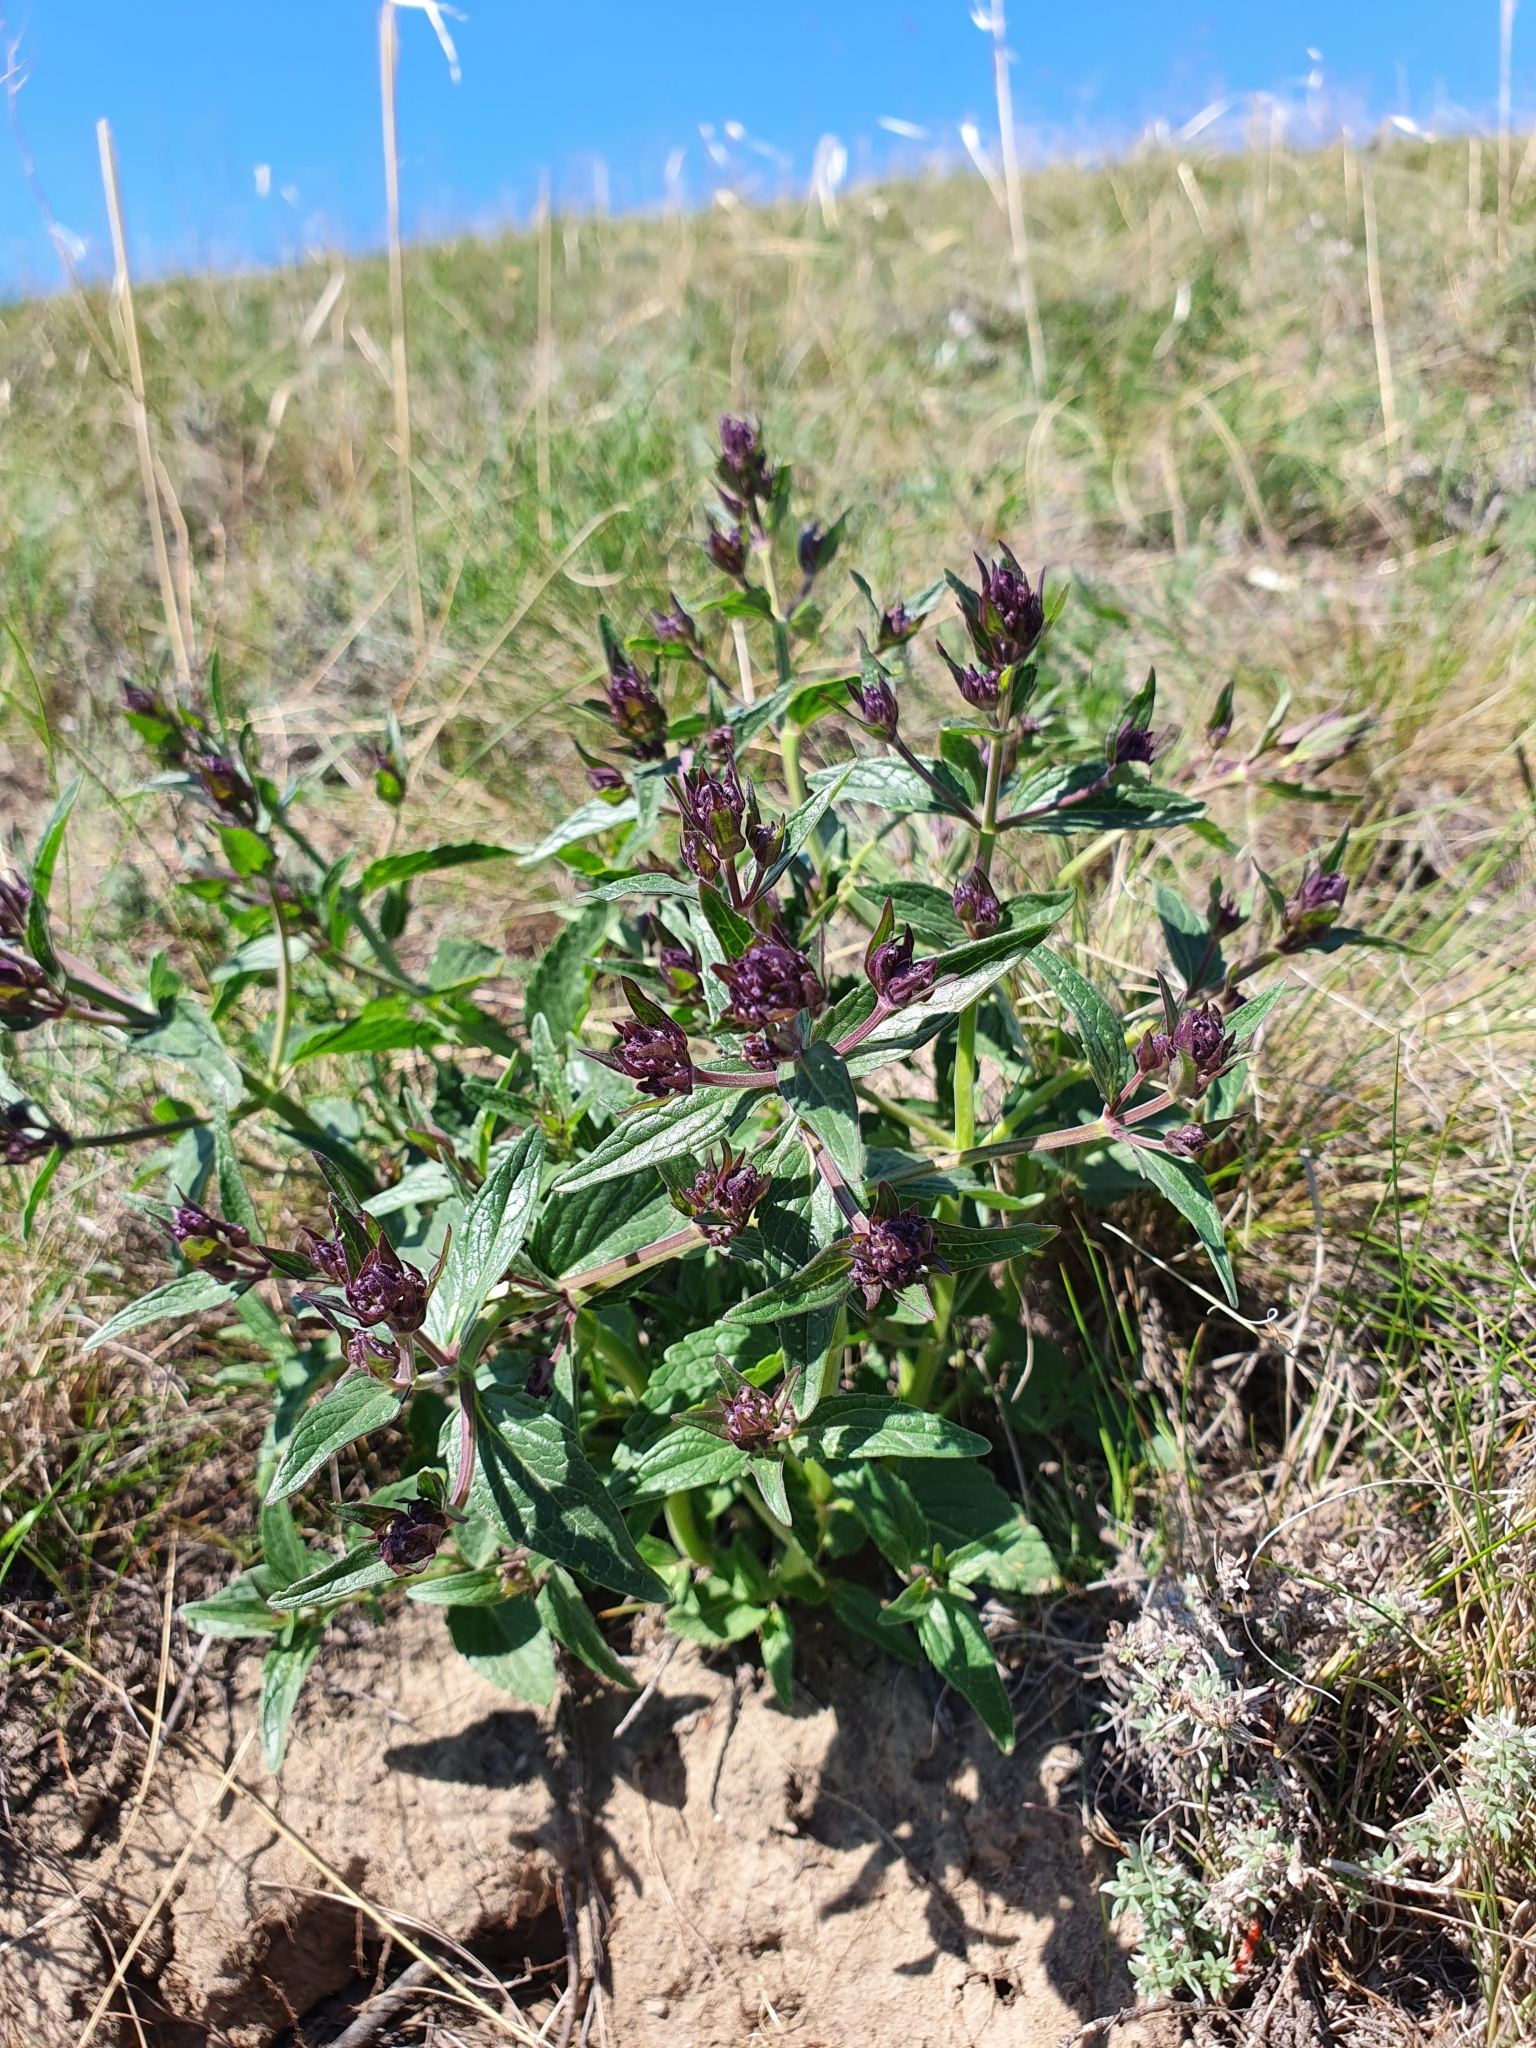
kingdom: Plantae
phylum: Tracheophyta
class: Magnoliopsida
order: Lamiales
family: Lamiaceae
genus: Nepeta
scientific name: Nepeta ucranica
